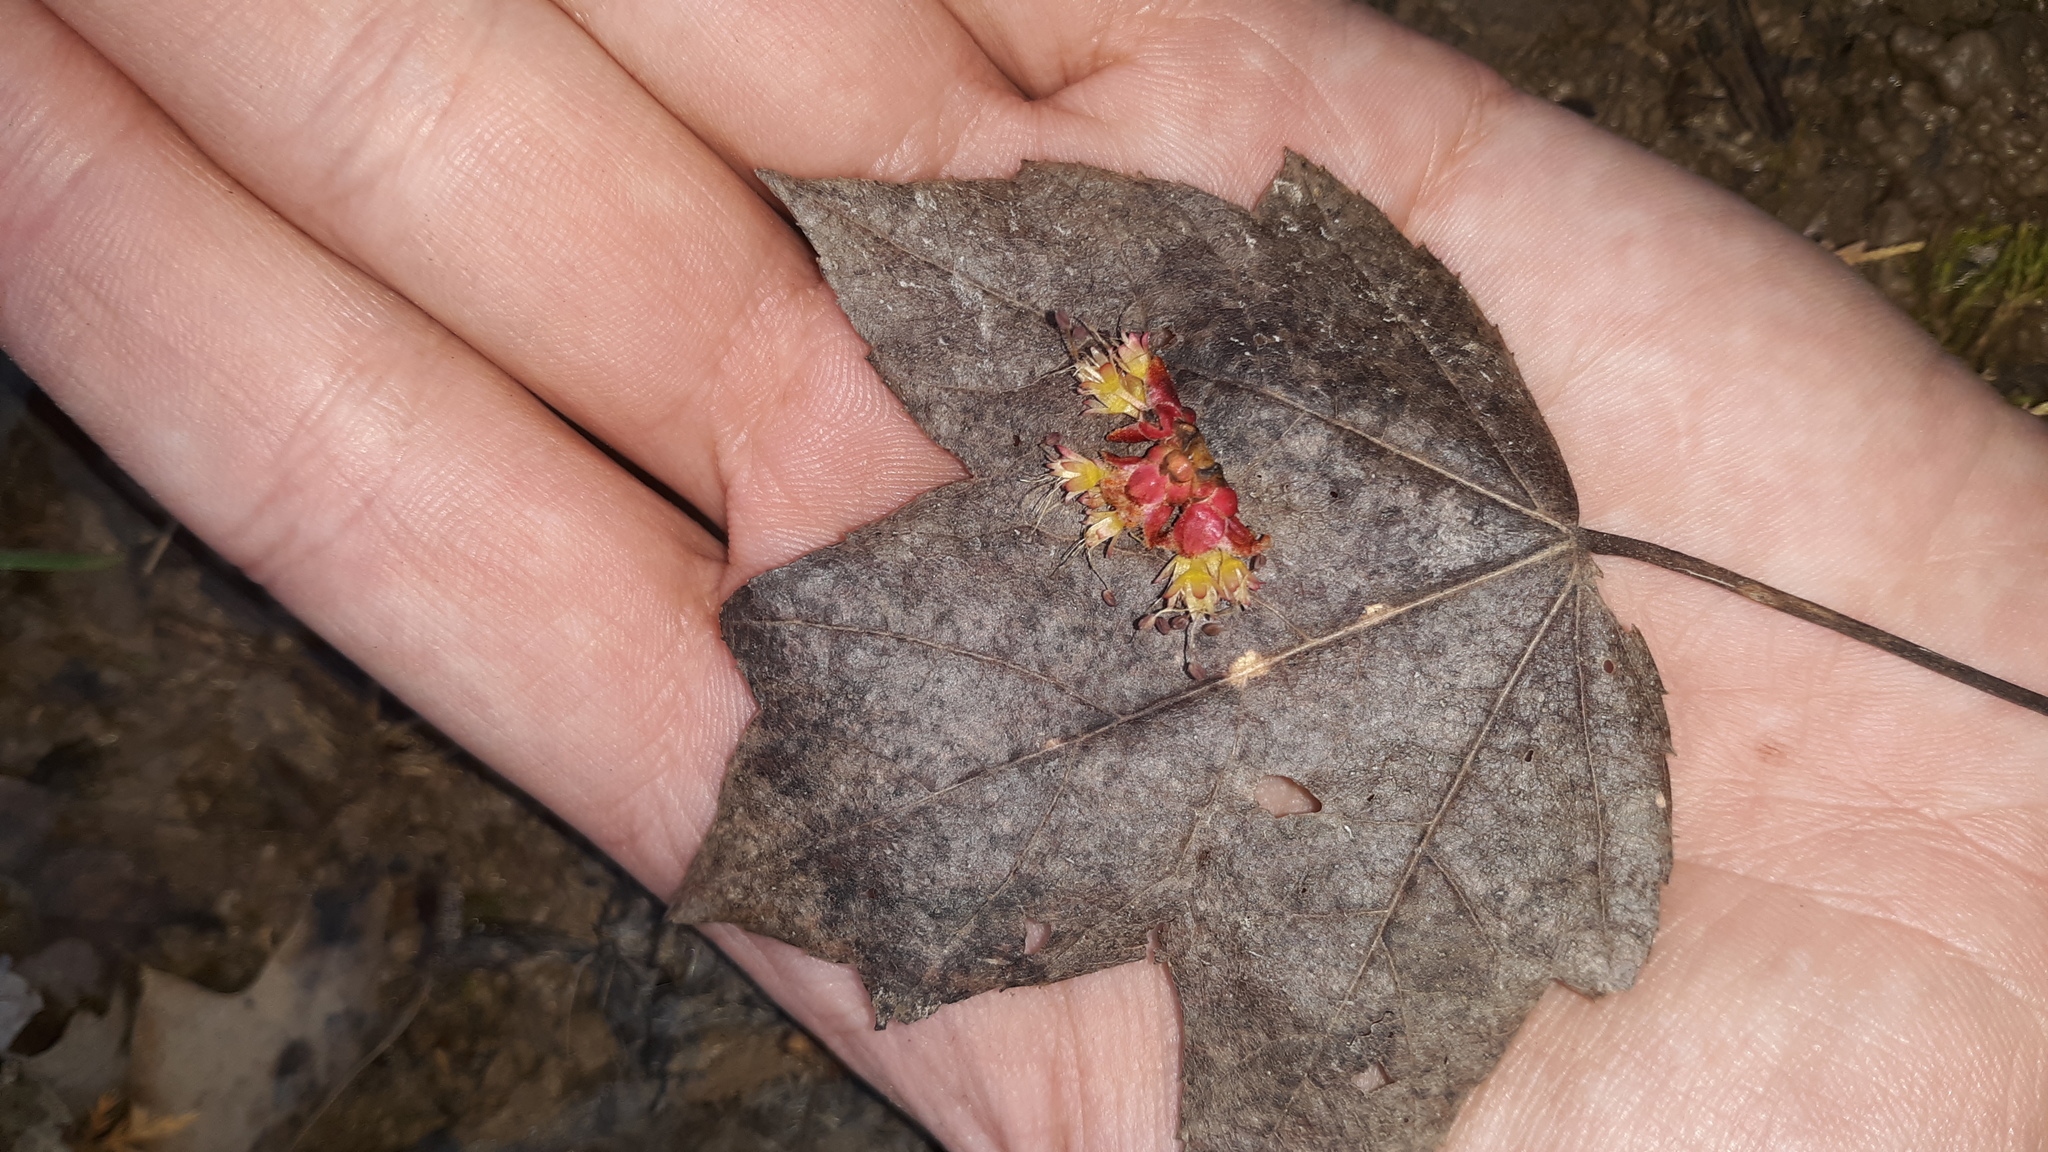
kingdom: Plantae
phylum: Tracheophyta
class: Magnoliopsida
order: Sapindales
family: Sapindaceae
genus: Acer
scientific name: Acer rubrum
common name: Red maple
